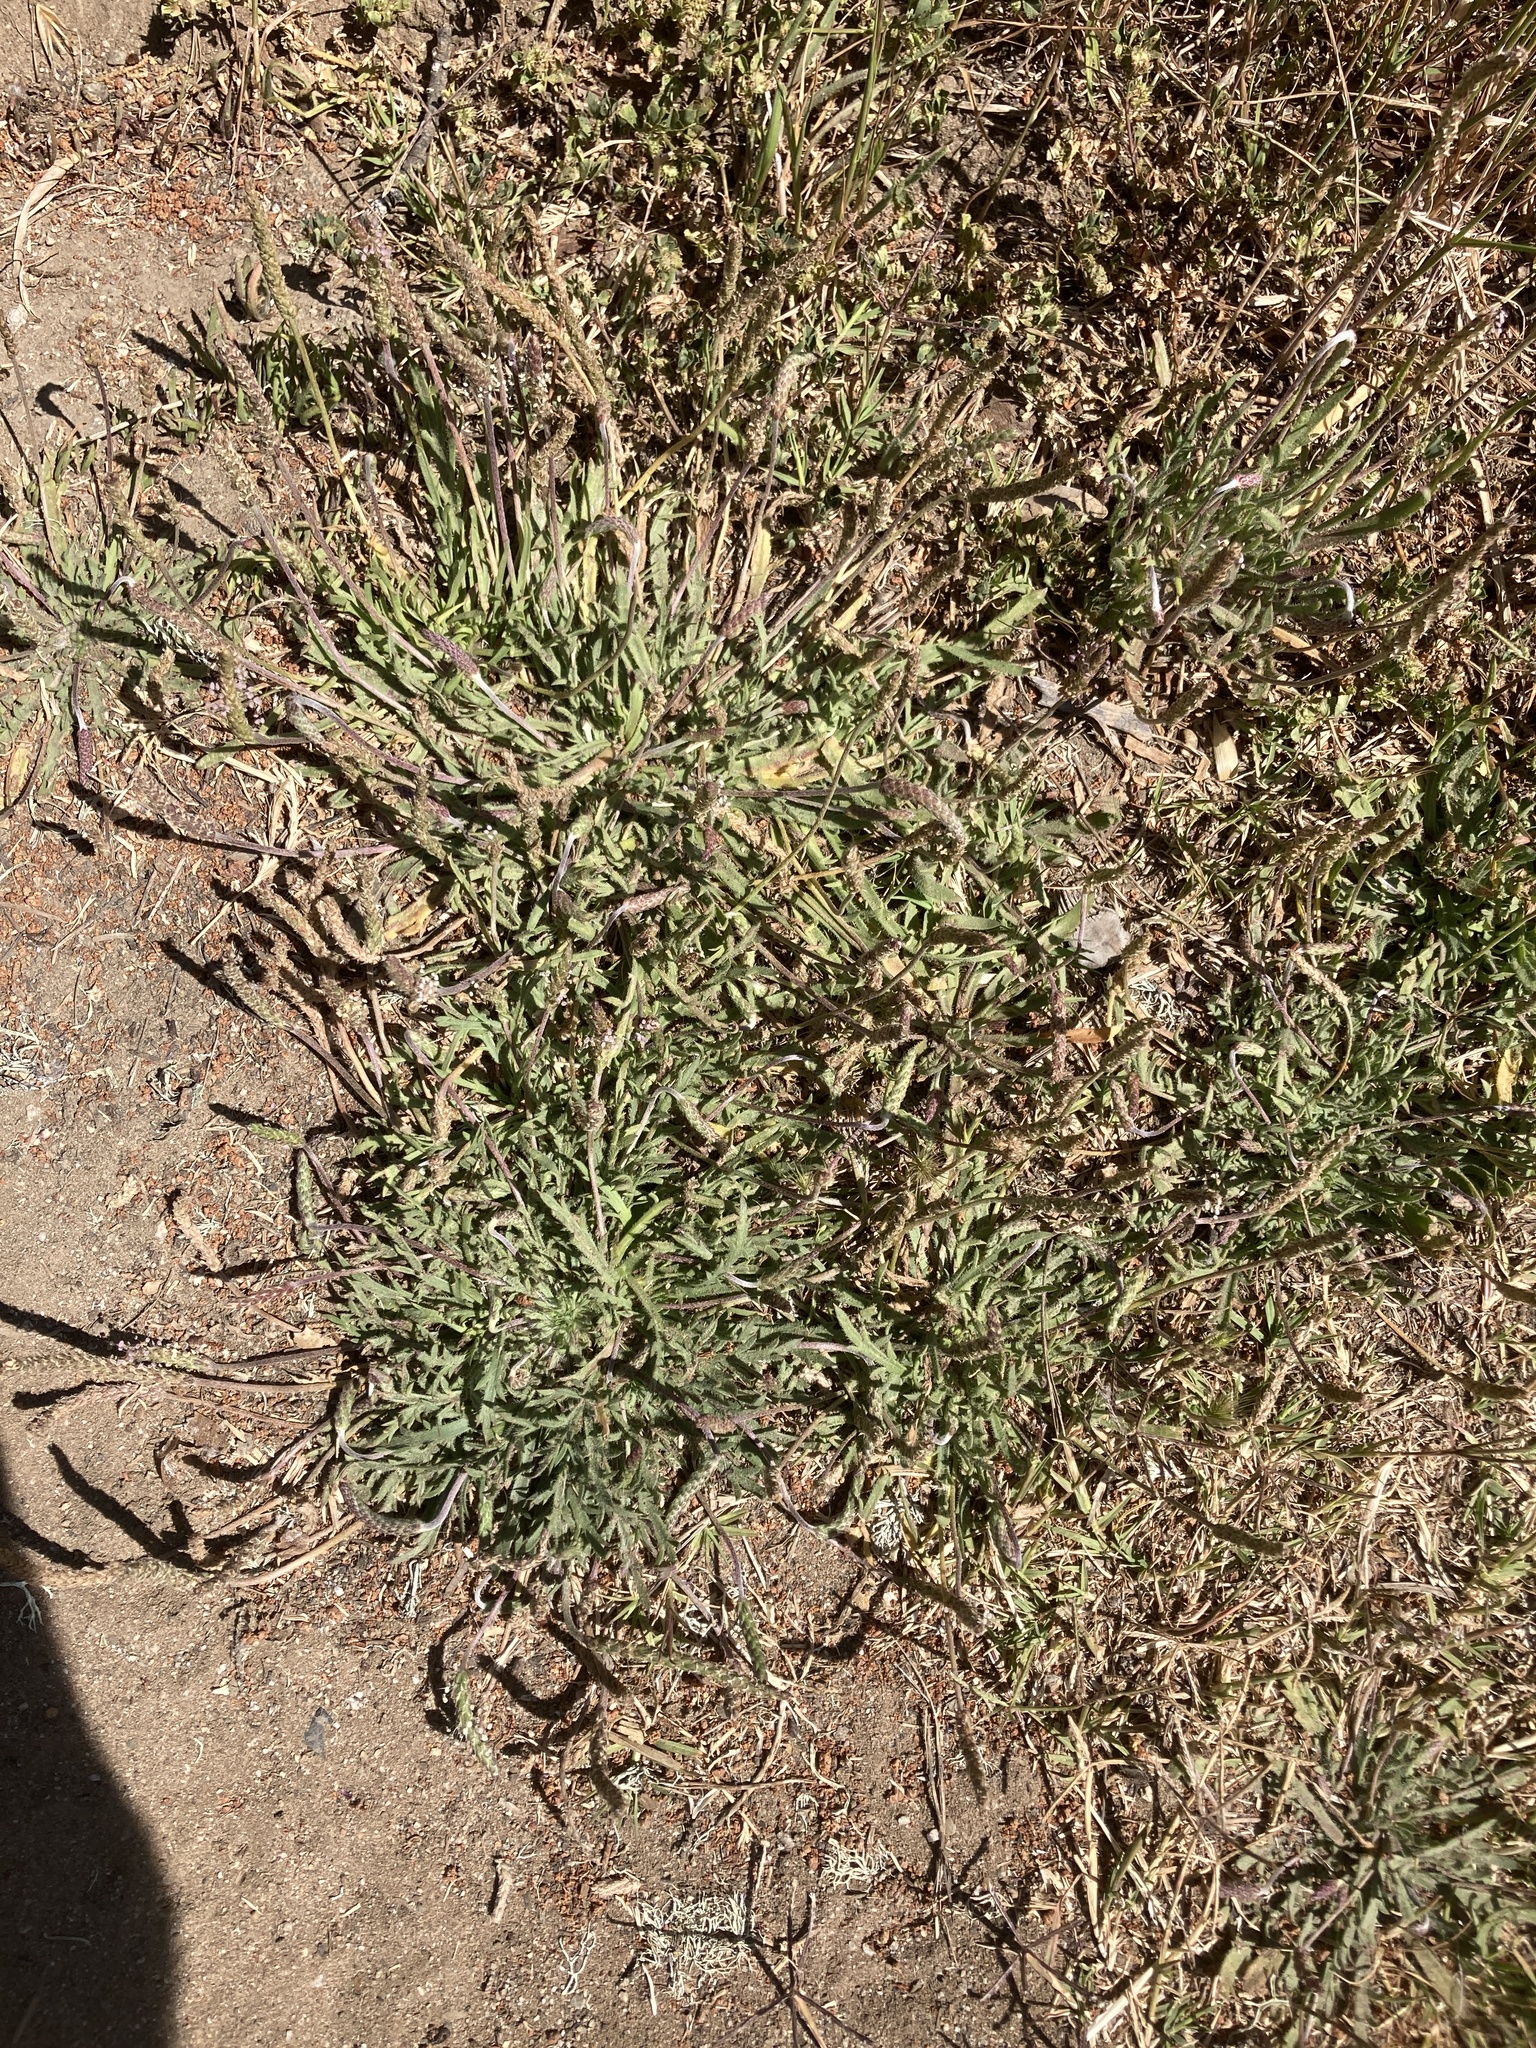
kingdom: Plantae
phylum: Tracheophyta
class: Magnoliopsida
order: Lamiales
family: Plantaginaceae
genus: Plantago
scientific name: Plantago coronopus
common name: Buck's-horn plantain
